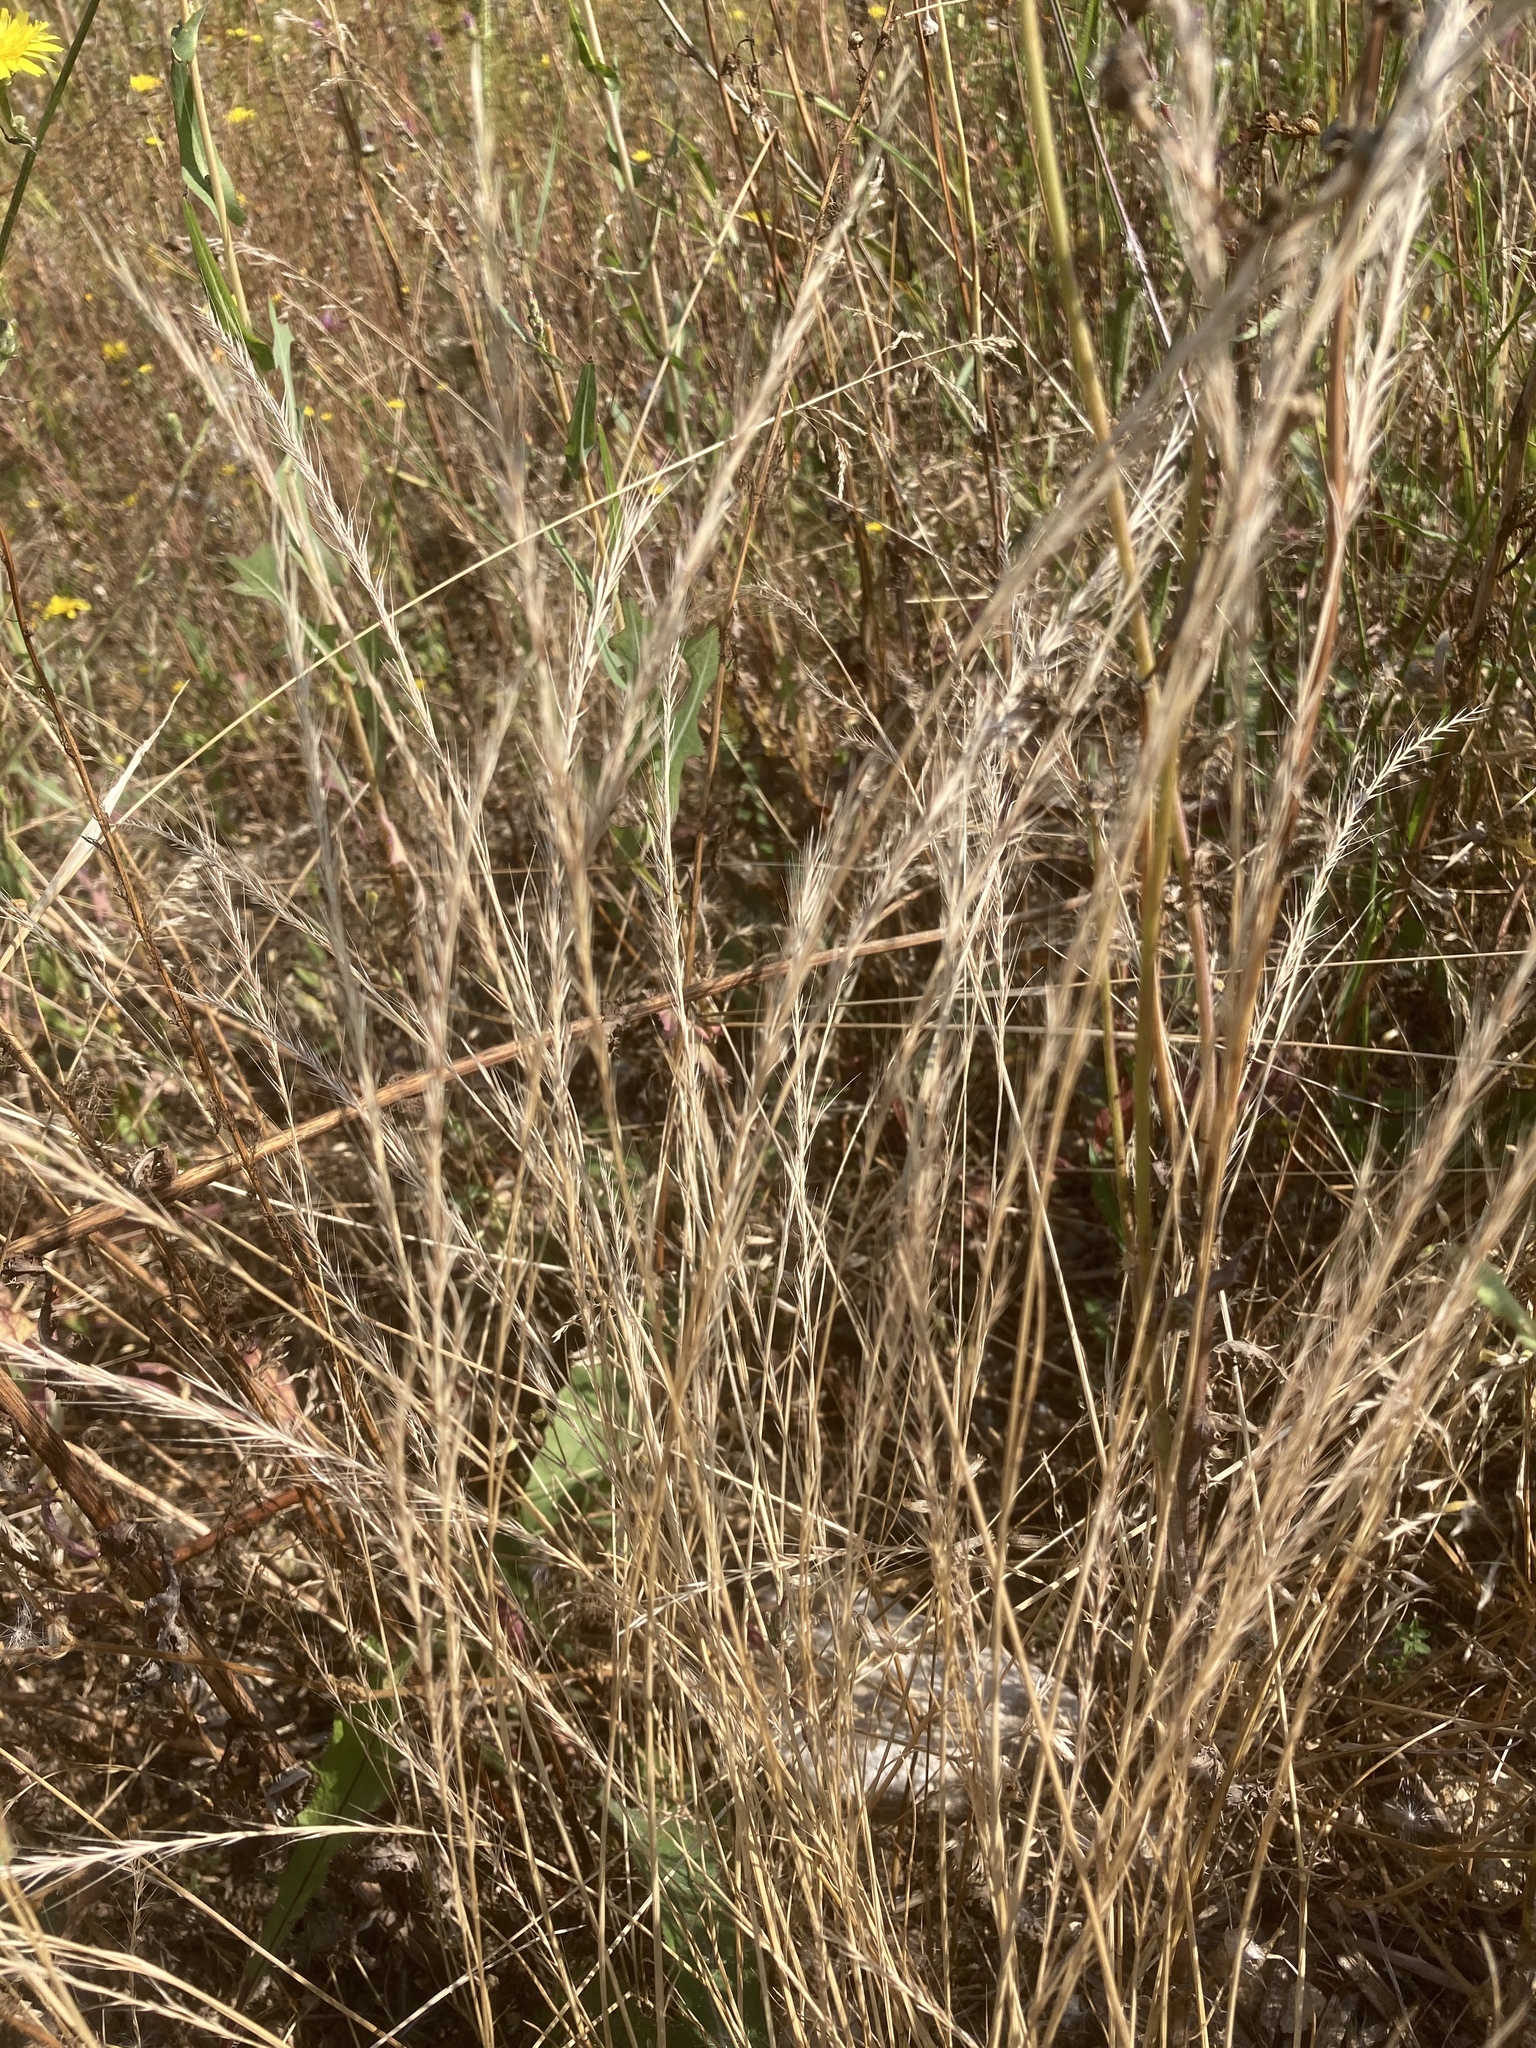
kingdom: Plantae
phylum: Tracheophyta
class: Liliopsida
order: Poales
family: Poaceae
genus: Festuca
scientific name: Festuca myuros
